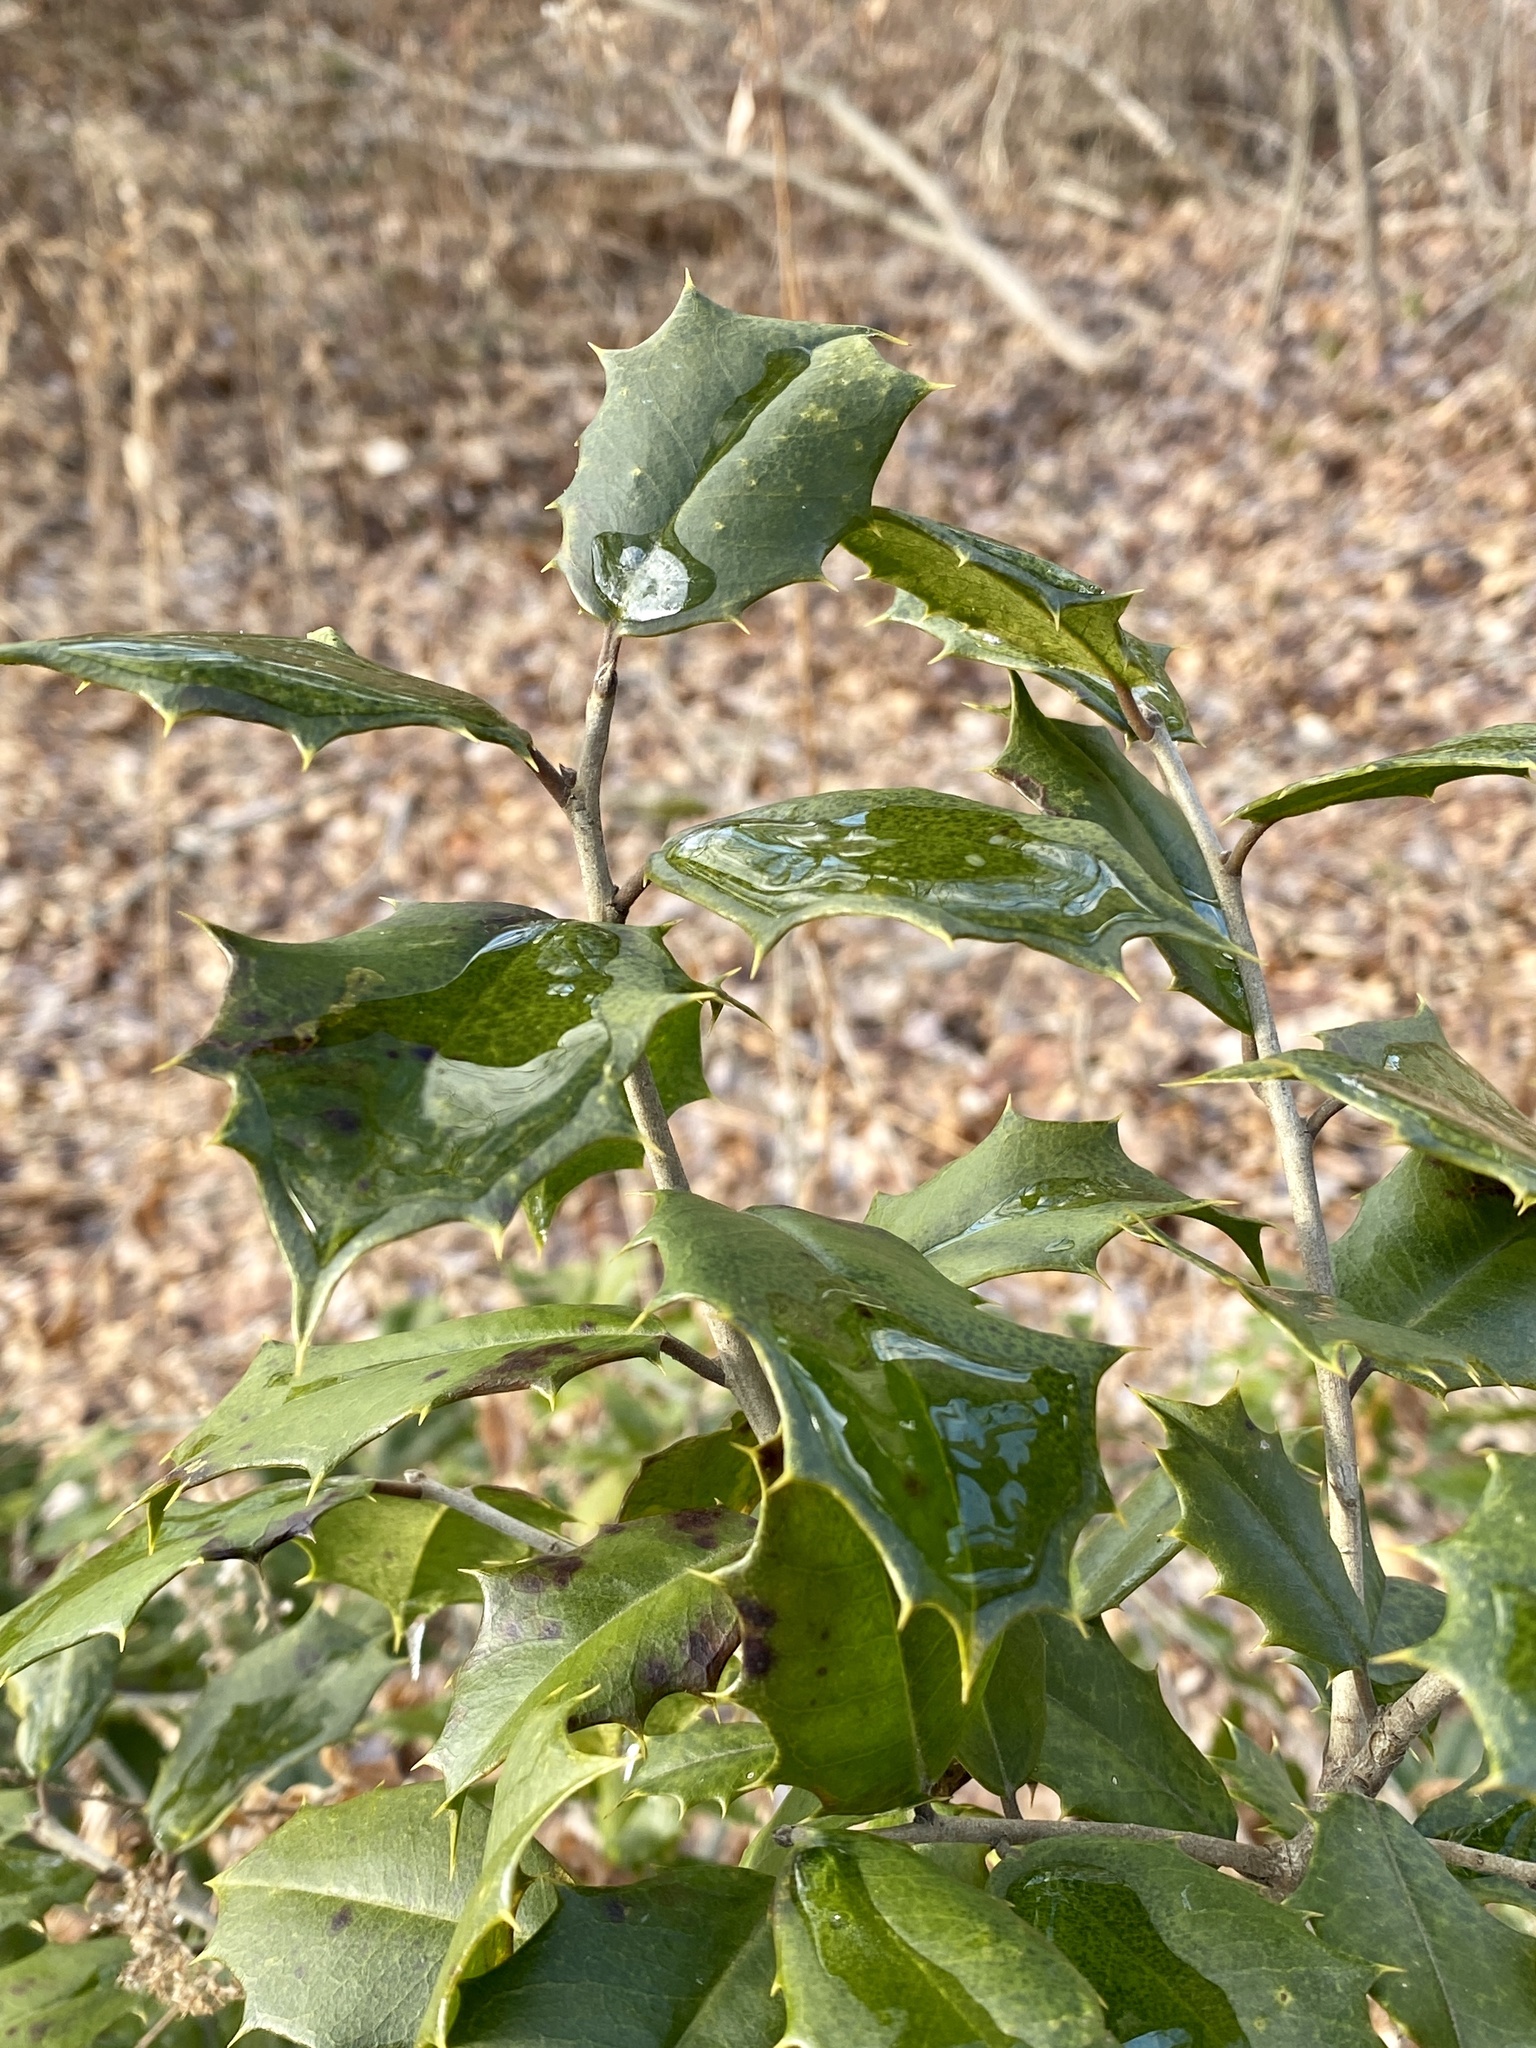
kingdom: Plantae
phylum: Tracheophyta
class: Magnoliopsida
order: Aquifoliales
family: Aquifoliaceae
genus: Ilex
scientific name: Ilex opaca
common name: American holly
